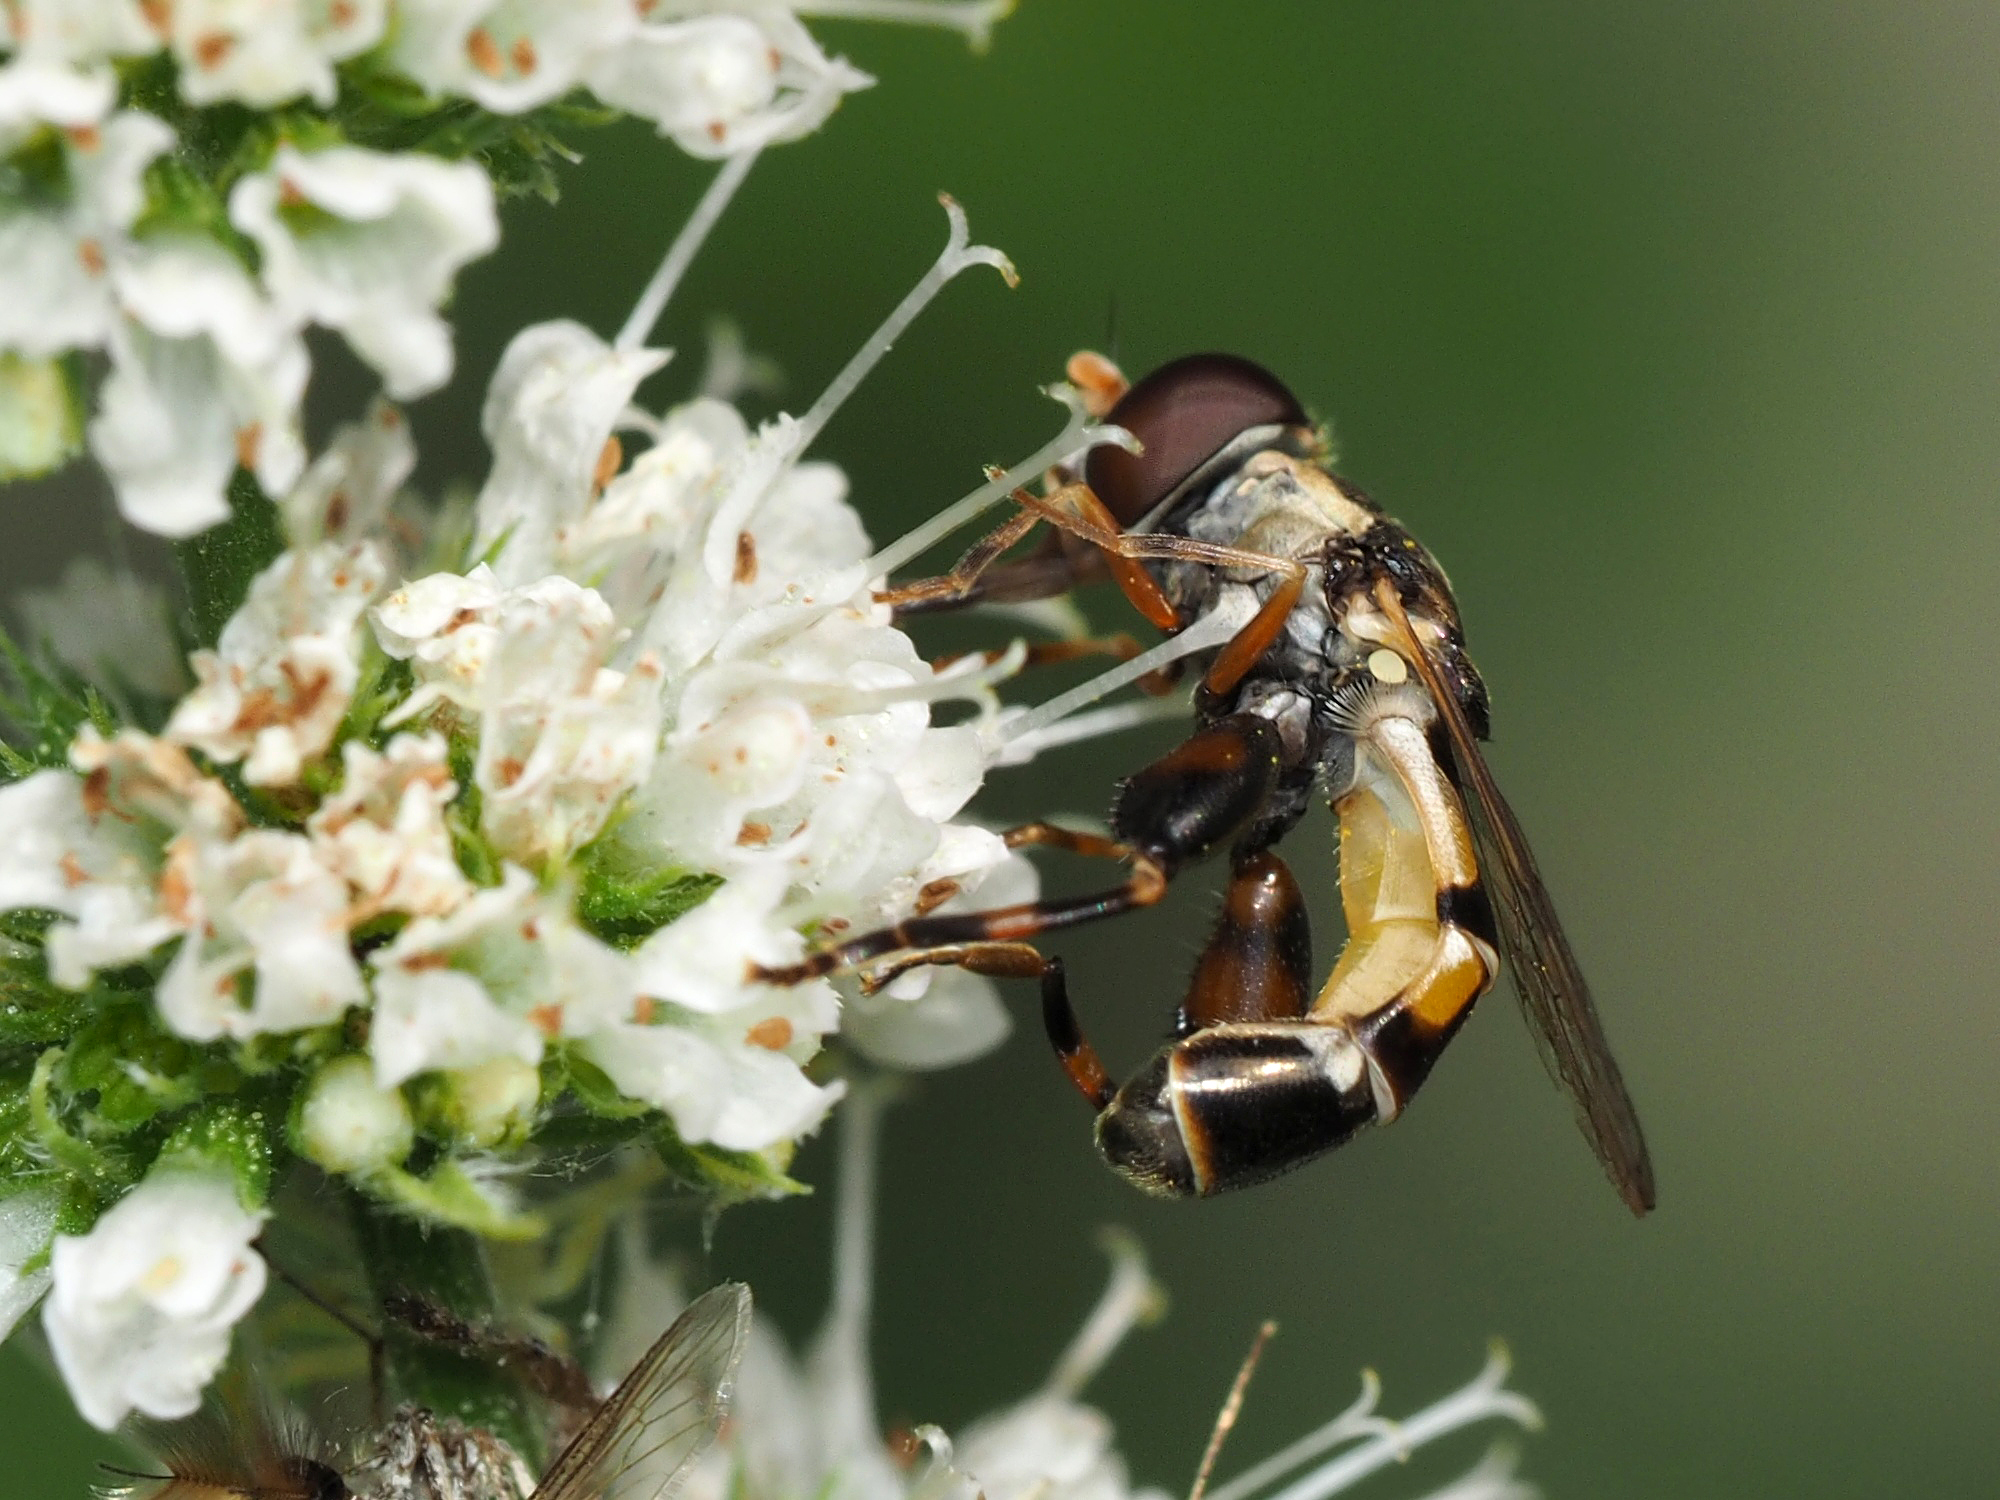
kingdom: Animalia
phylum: Arthropoda
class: Insecta
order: Diptera
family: Syrphidae
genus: Syritta
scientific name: Syritta pipiens
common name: Hover fly
